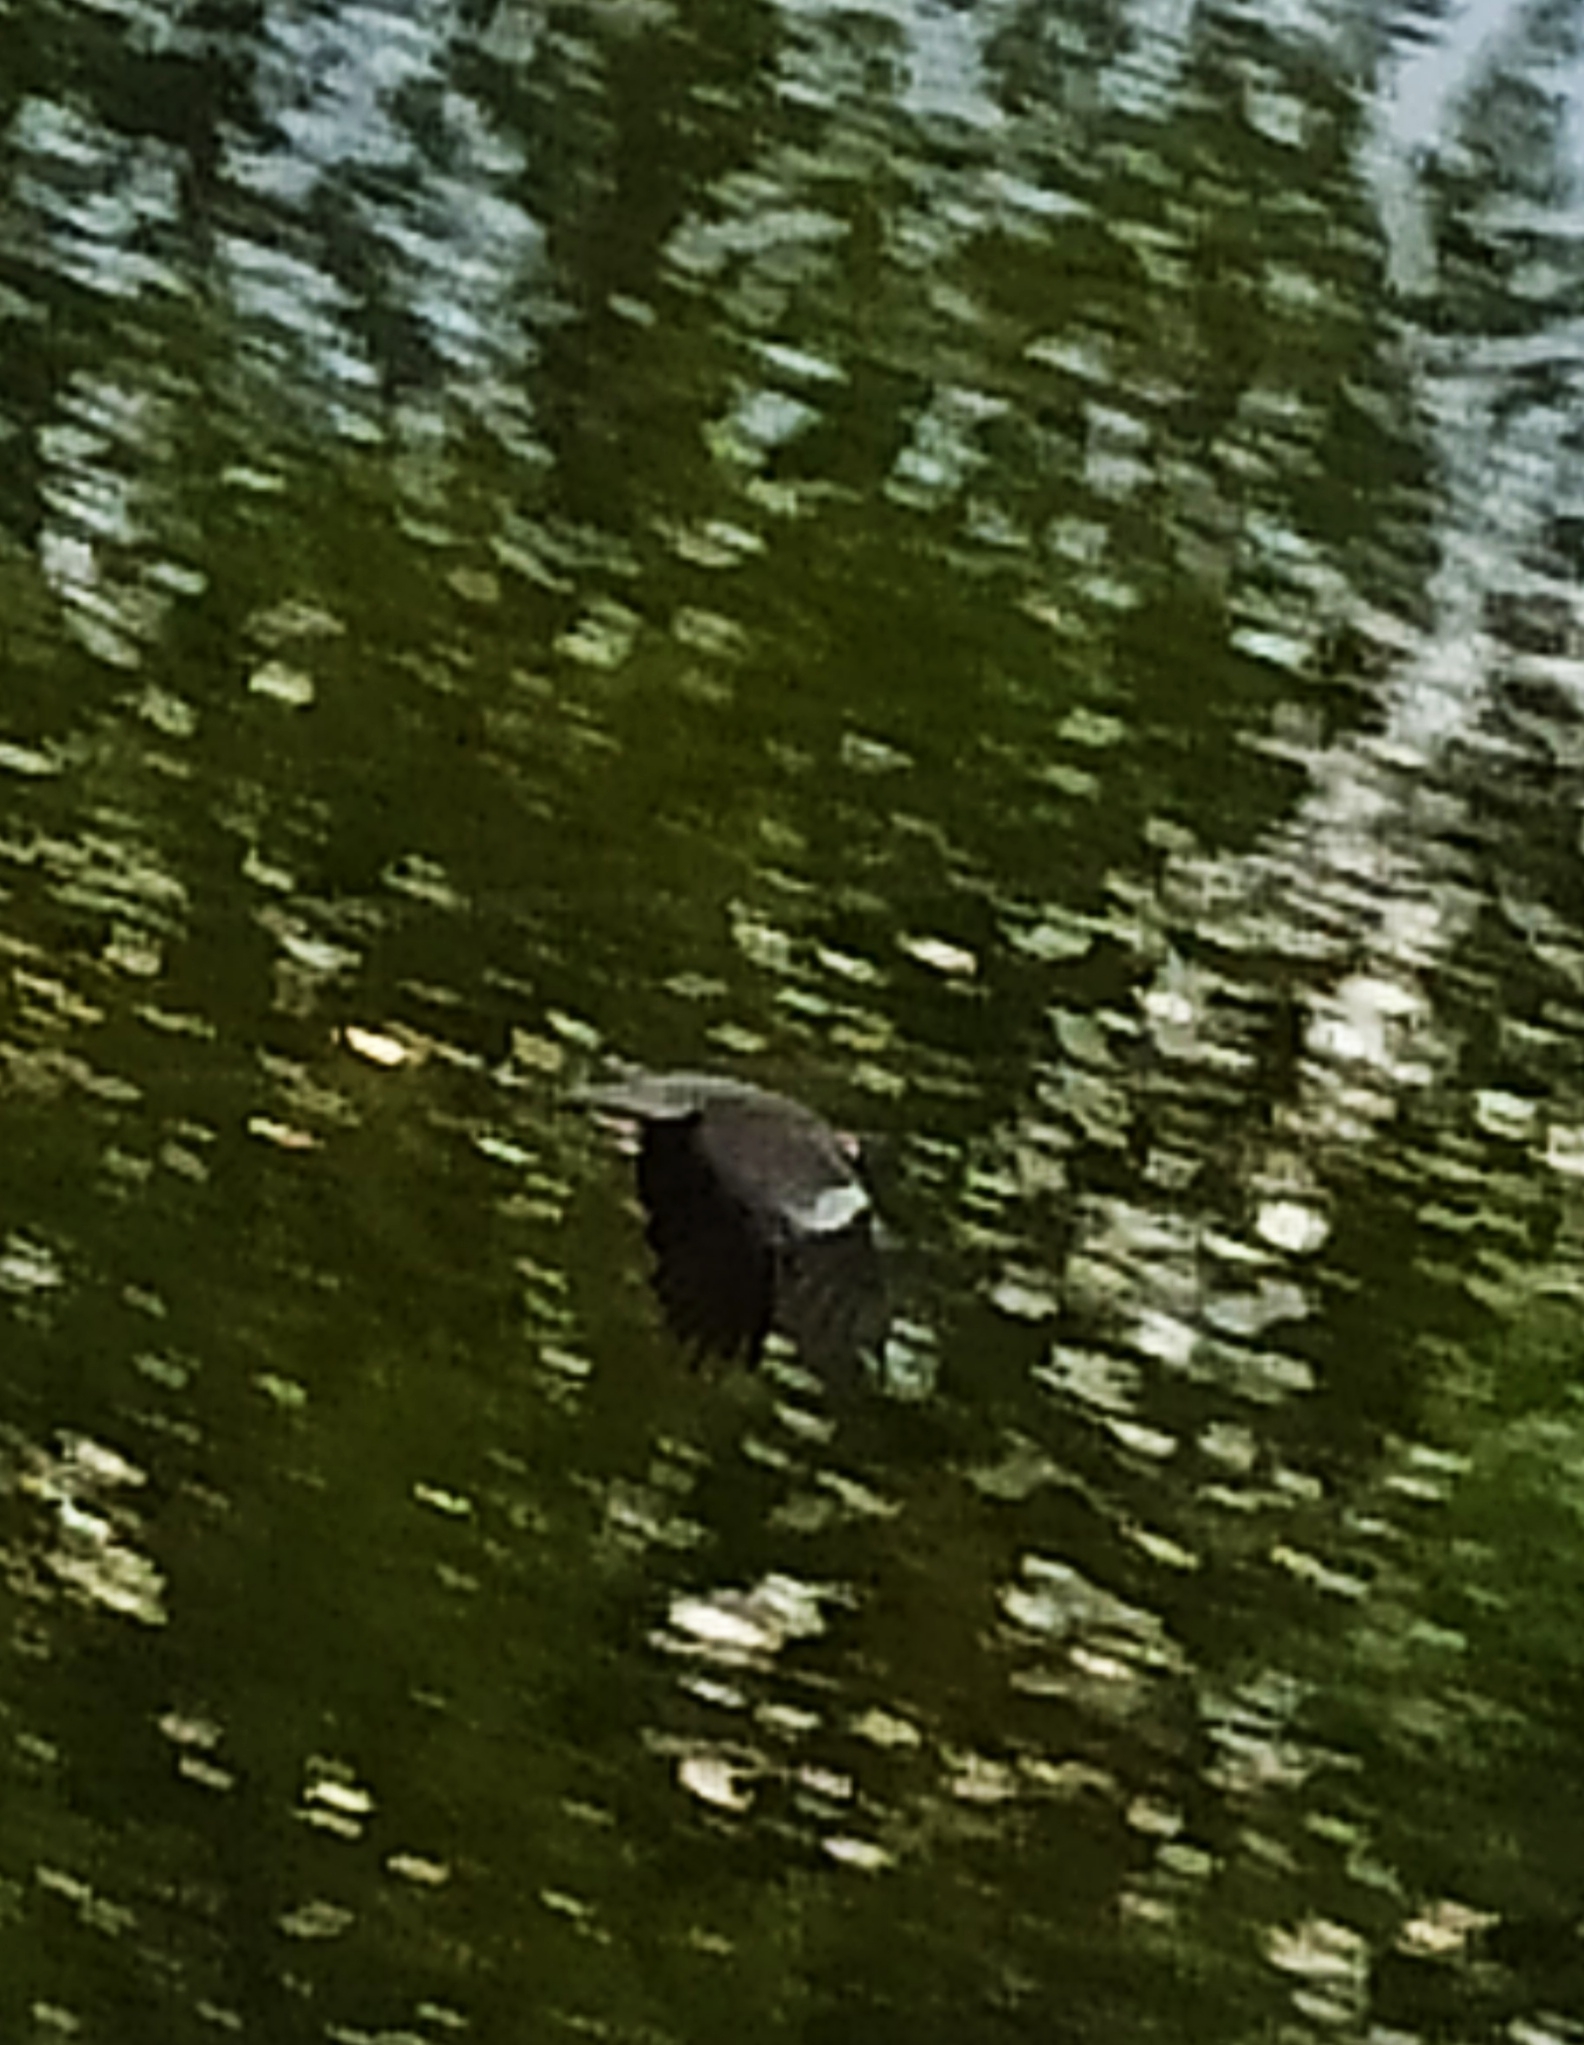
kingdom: Animalia
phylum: Chordata
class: Aves
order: Columbiformes
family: Columbidae
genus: Columba
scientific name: Columba palumbus
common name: Common wood pigeon
